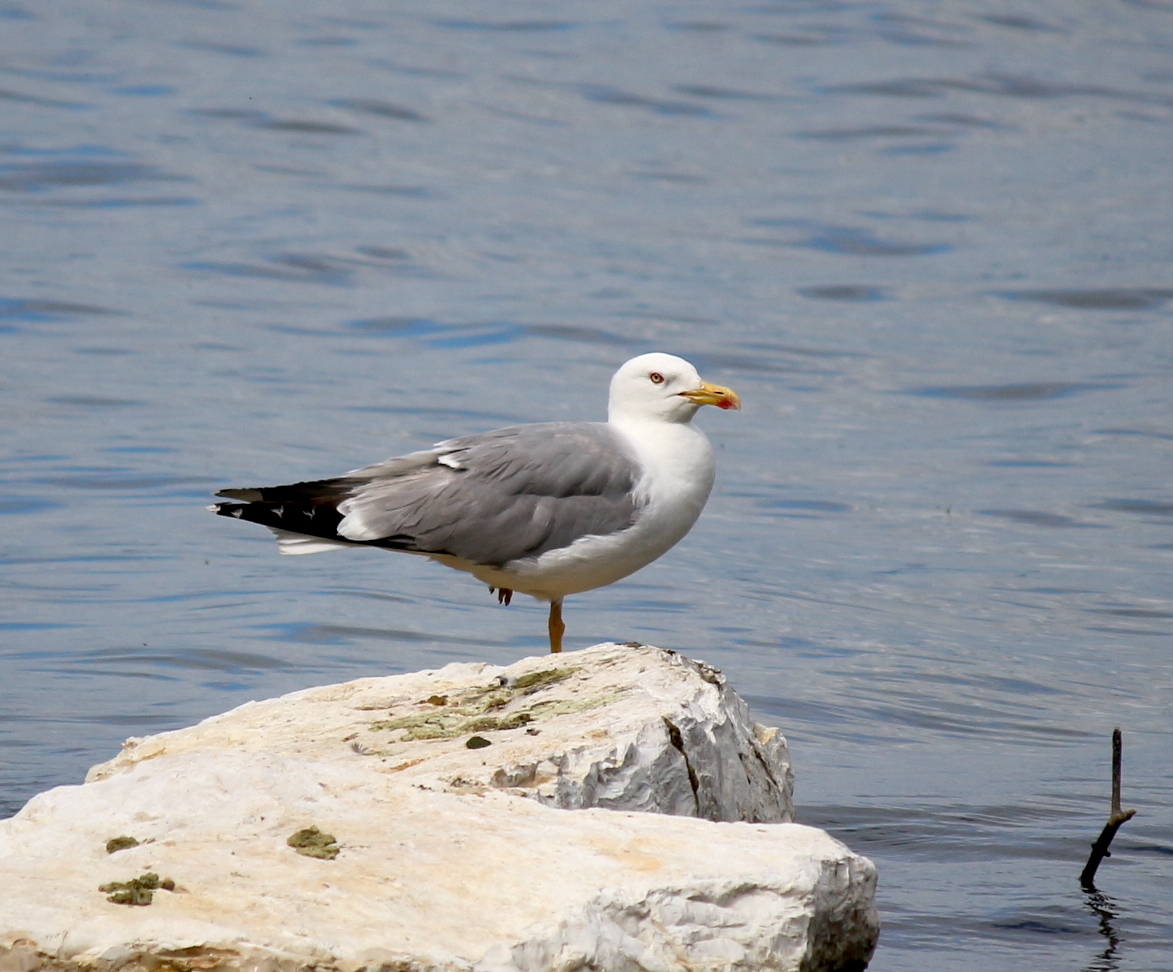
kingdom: Animalia
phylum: Chordata
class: Aves
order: Charadriiformes
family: Laridae
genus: Larus
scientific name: Larus michahellis
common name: Yellow-legged gull
